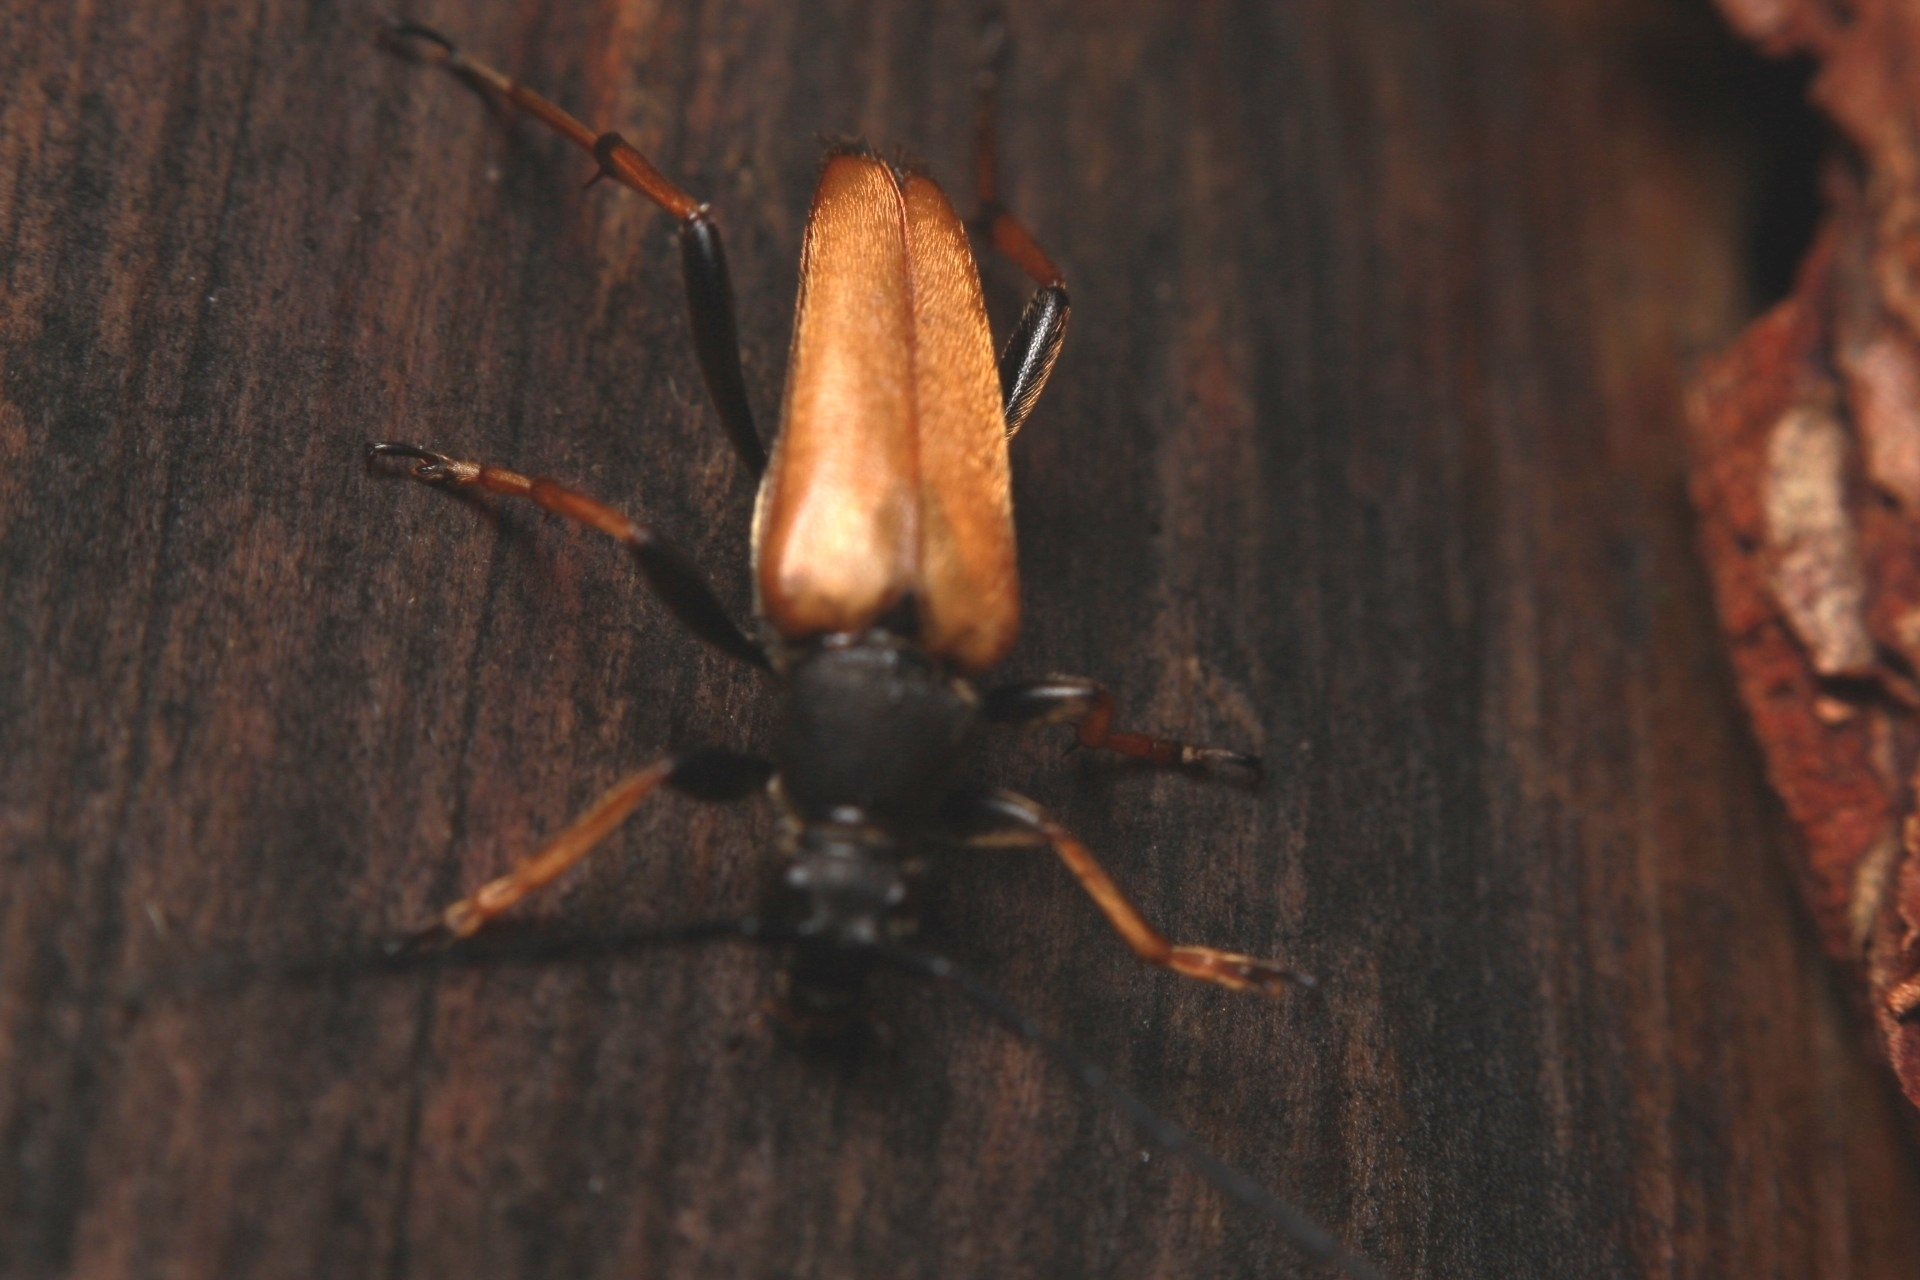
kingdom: Animalia
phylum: Arthropoda
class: Insecta
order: Coleoptera
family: Cerambycidae
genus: Stictoleptura
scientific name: Stictoleptura rubra
